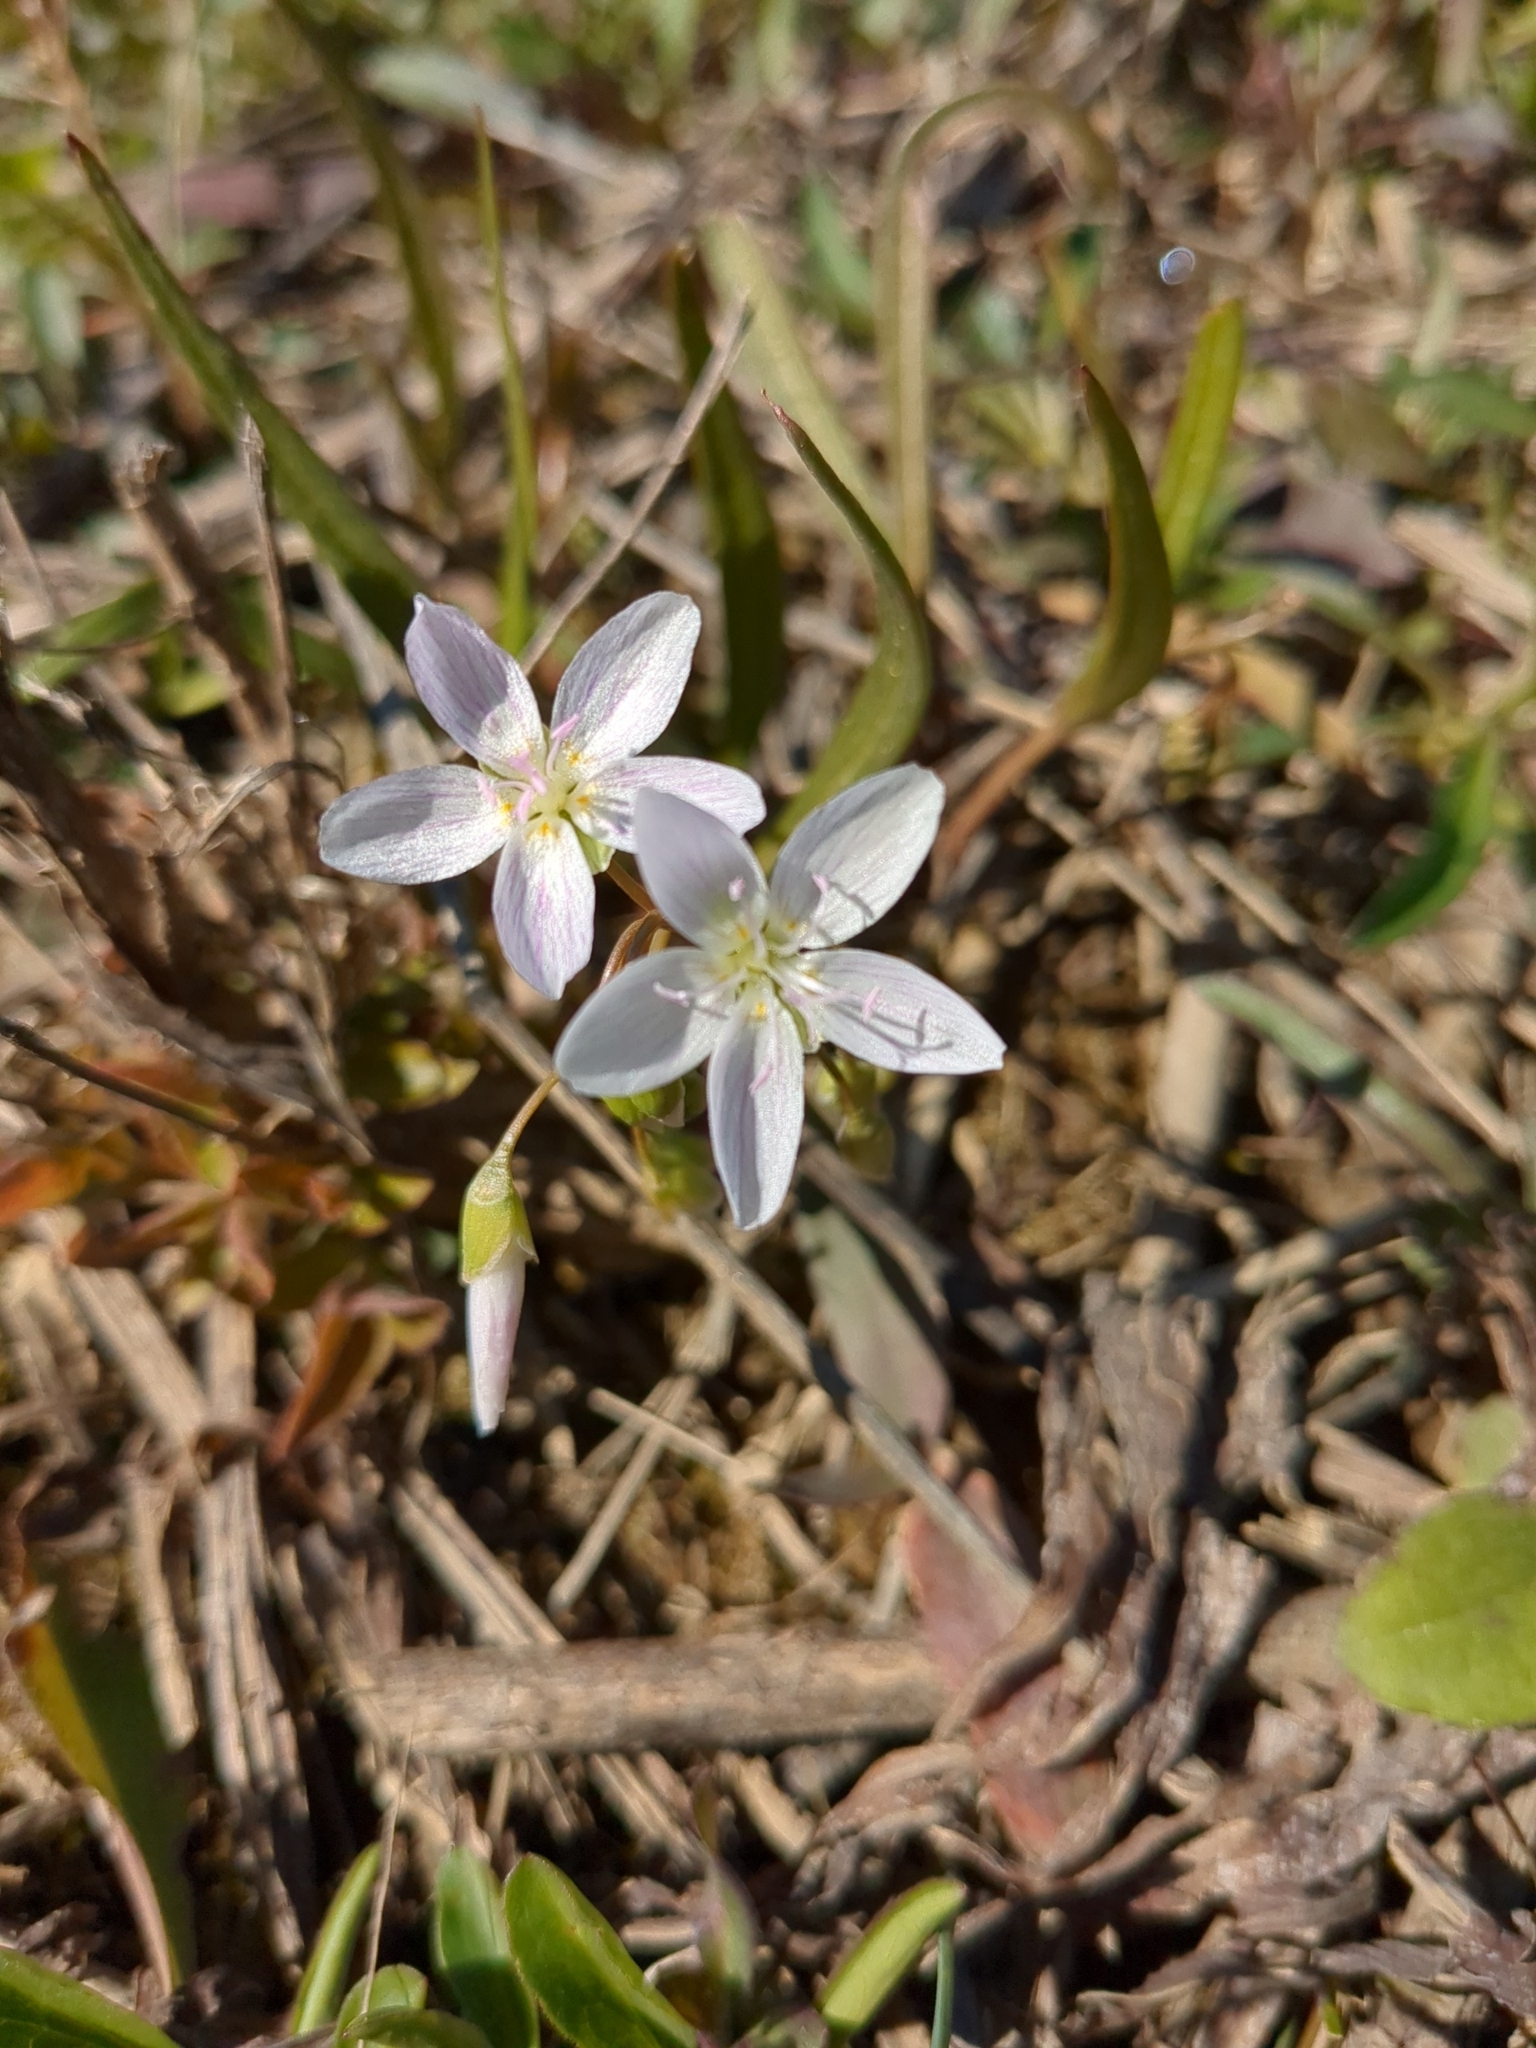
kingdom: Plantae
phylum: Tracheophyta
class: Magnoliopsida
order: Caryophyllales
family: Montiaceae
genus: Claytonia
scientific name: Claytonia virginica
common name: Virginia springbeauty
